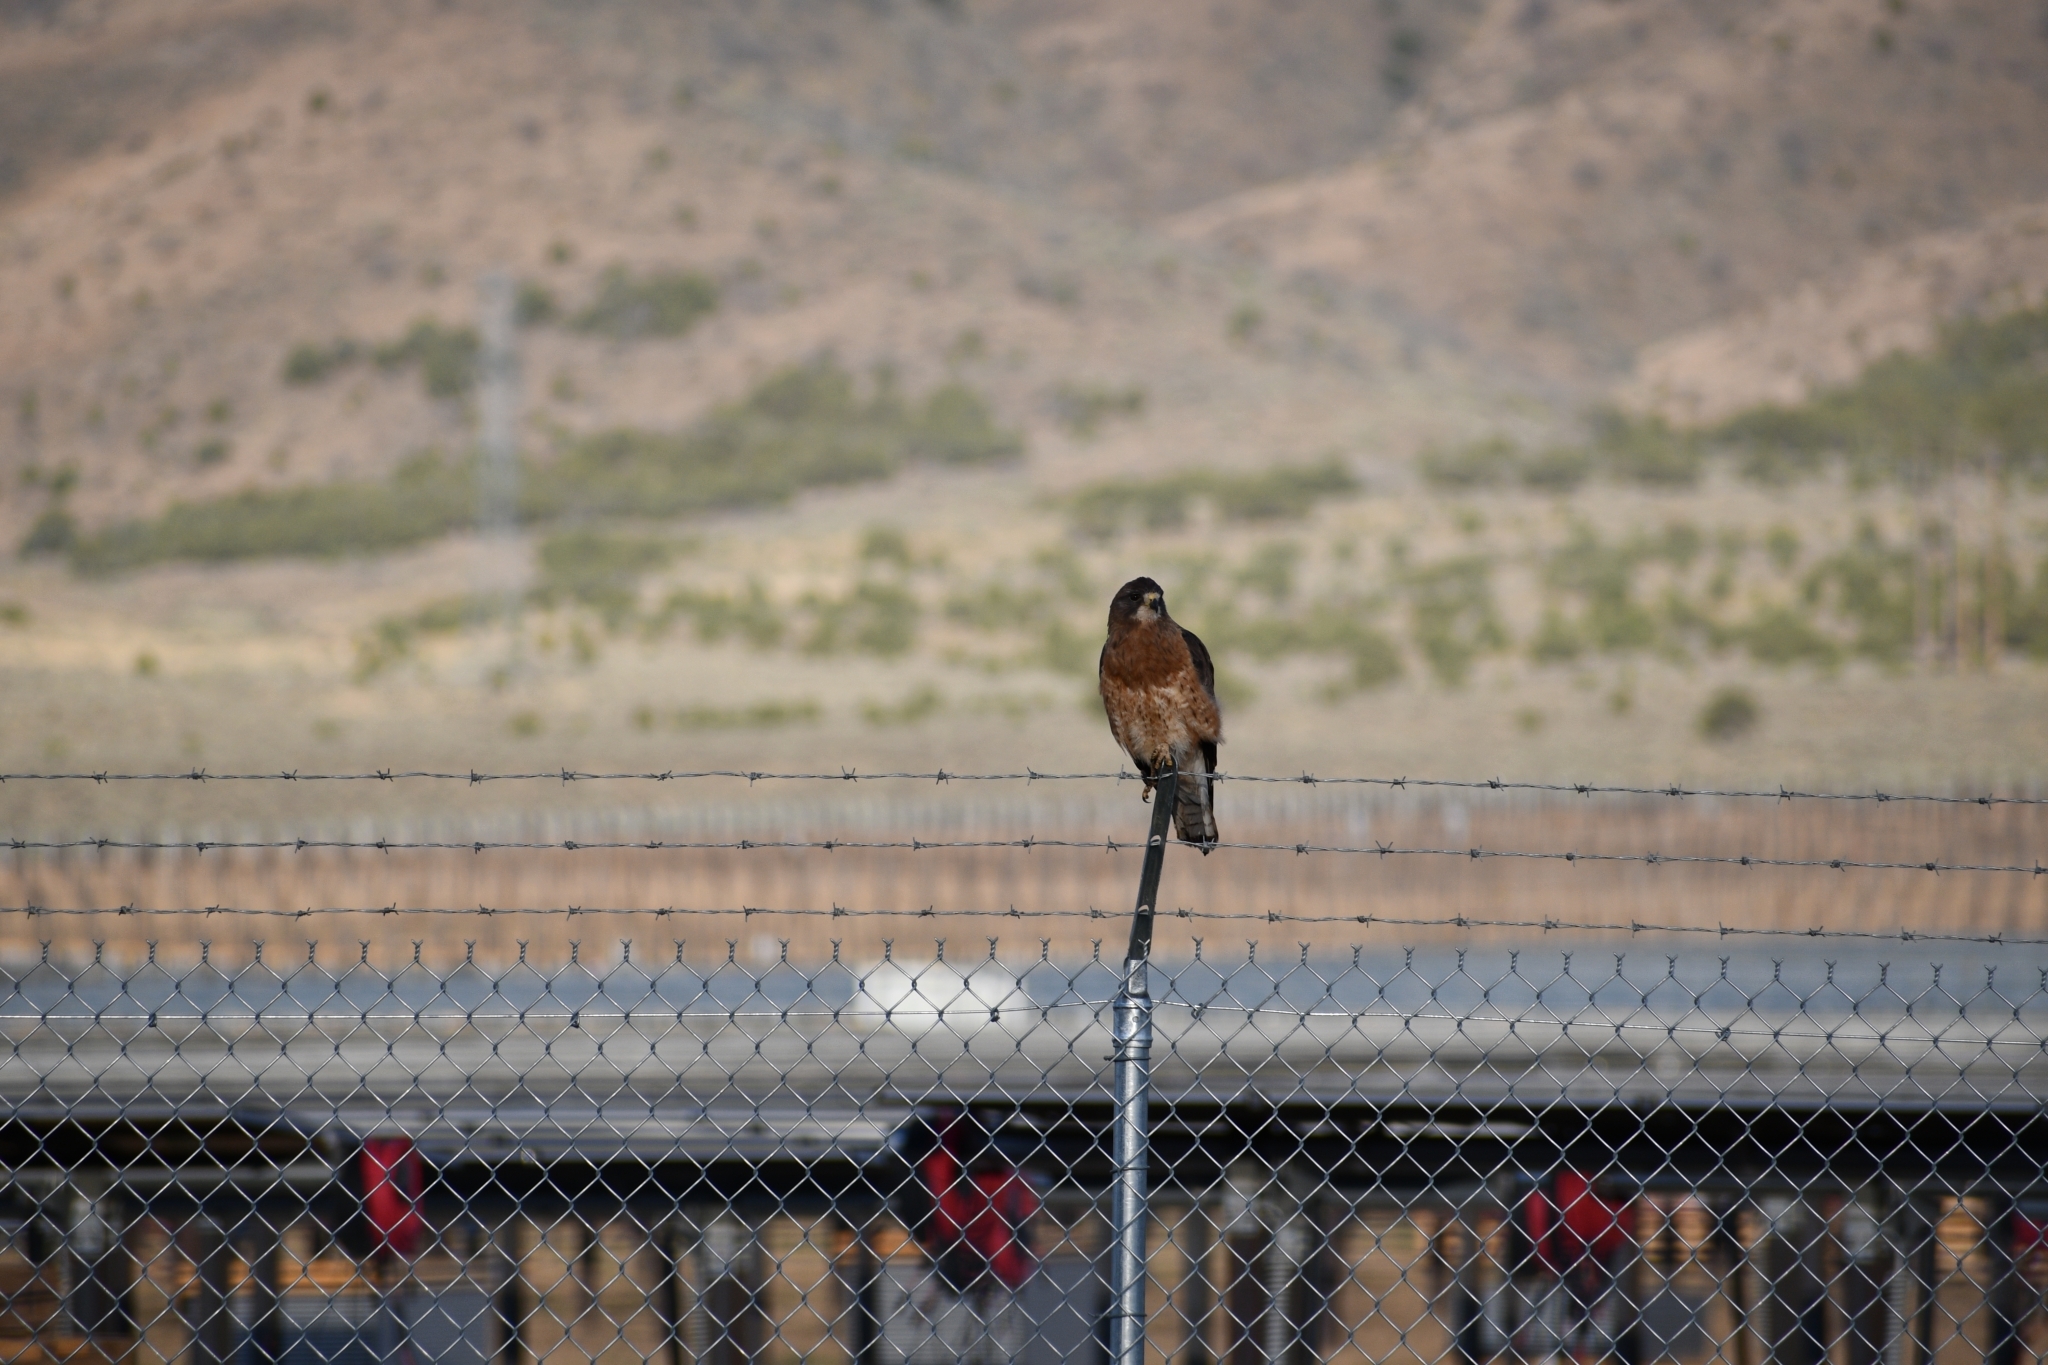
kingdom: Animalia
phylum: Chordata
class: Aves
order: Accipitriformes
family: Accipitridae
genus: Buteo
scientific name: Buteo swainsoni
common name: Swainson's hawk
